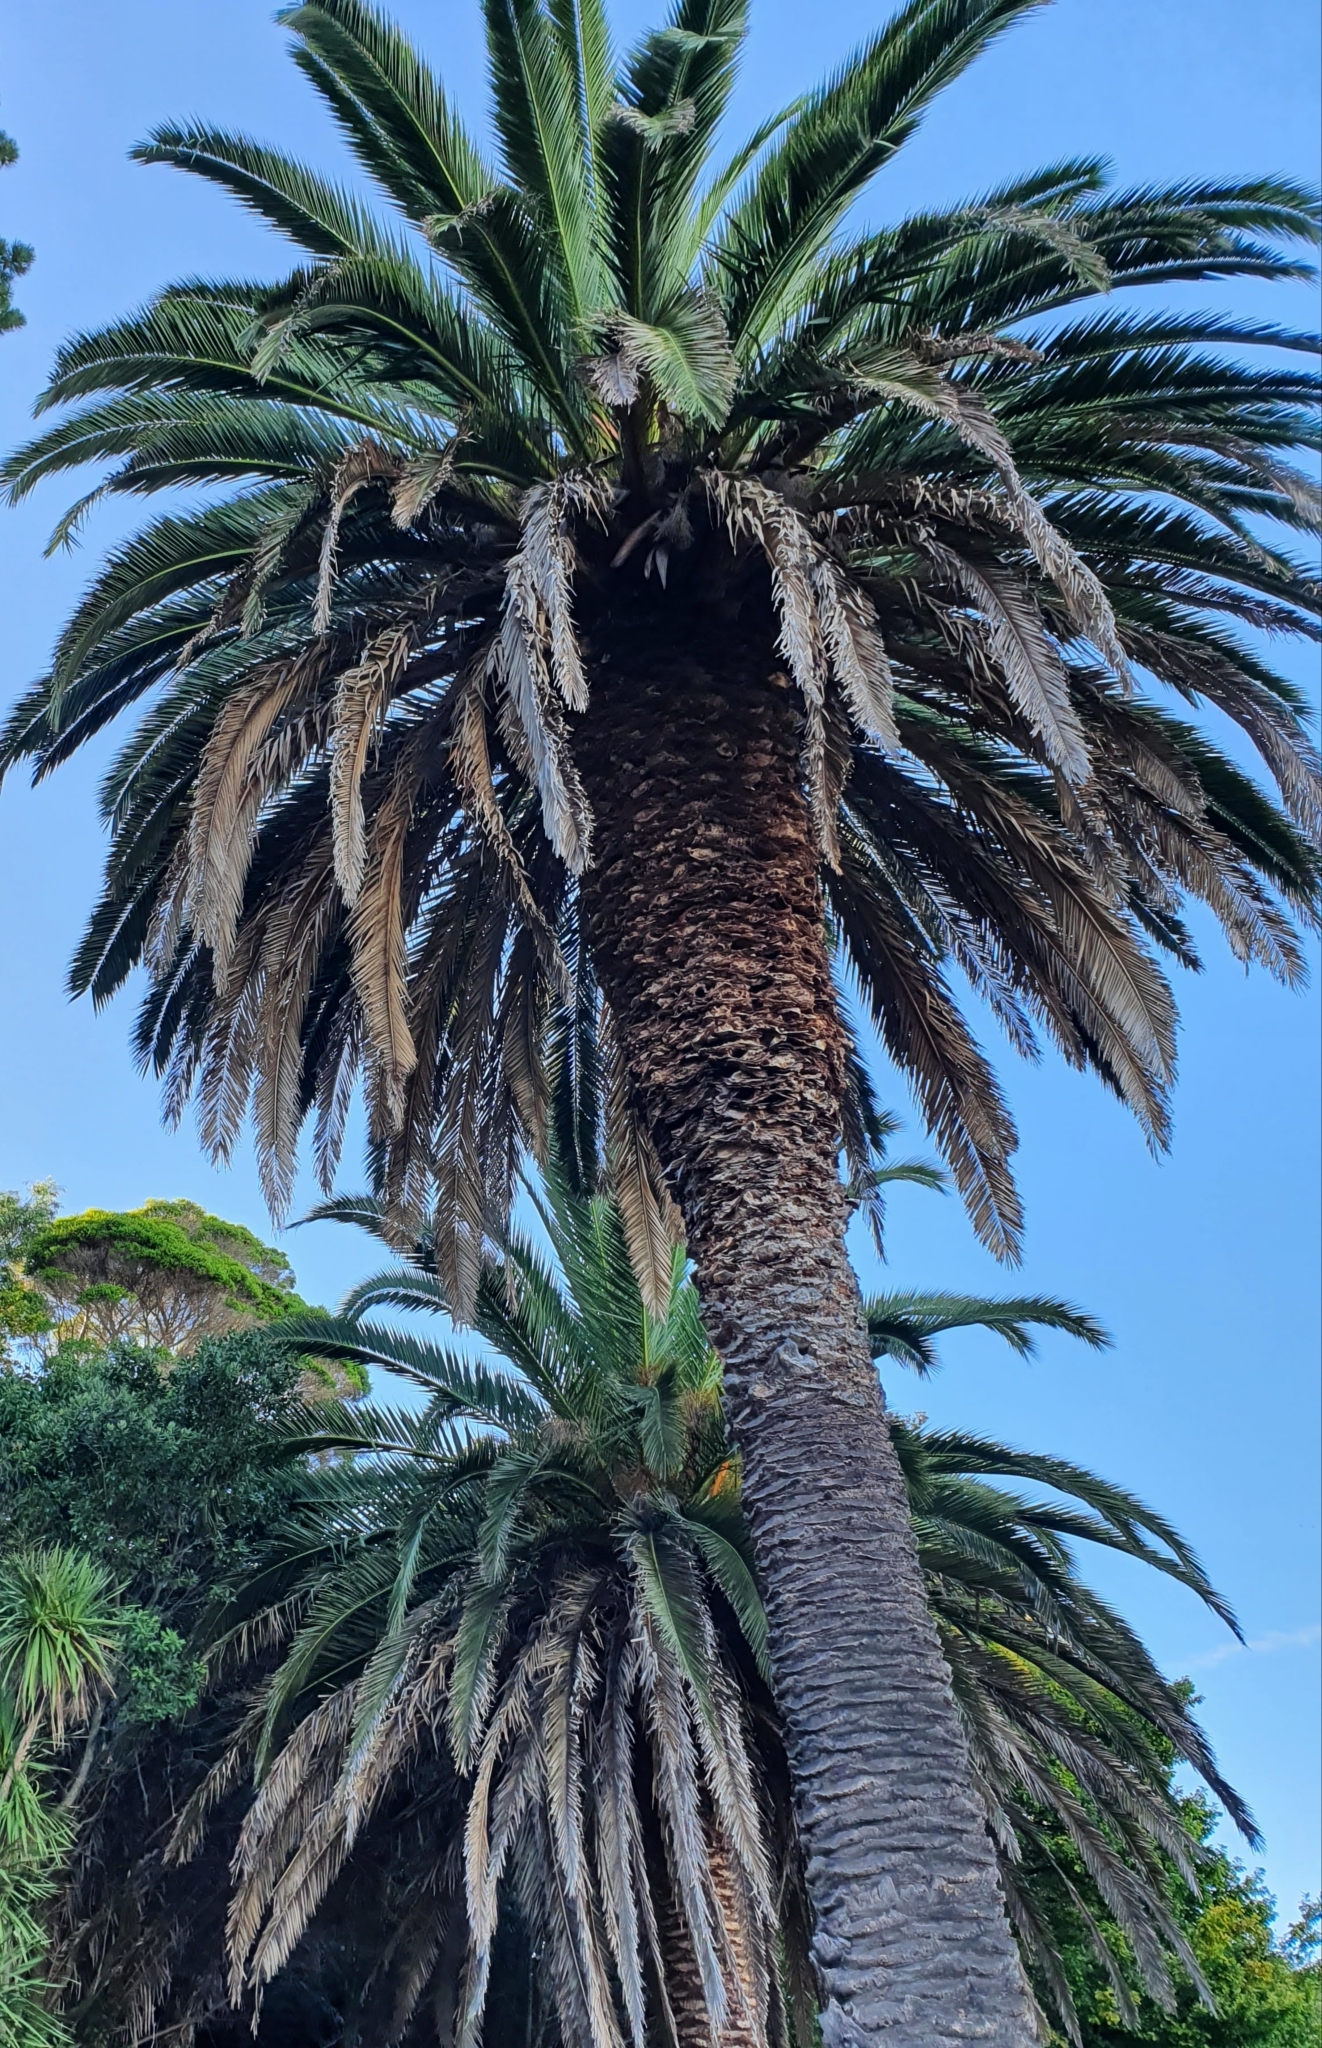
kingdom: Plantae
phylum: Tracheophyta
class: Liliopsida
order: Arecales
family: Arecaceae
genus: Phoenix
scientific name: Phoenix canariensis
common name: Canary island date palm
